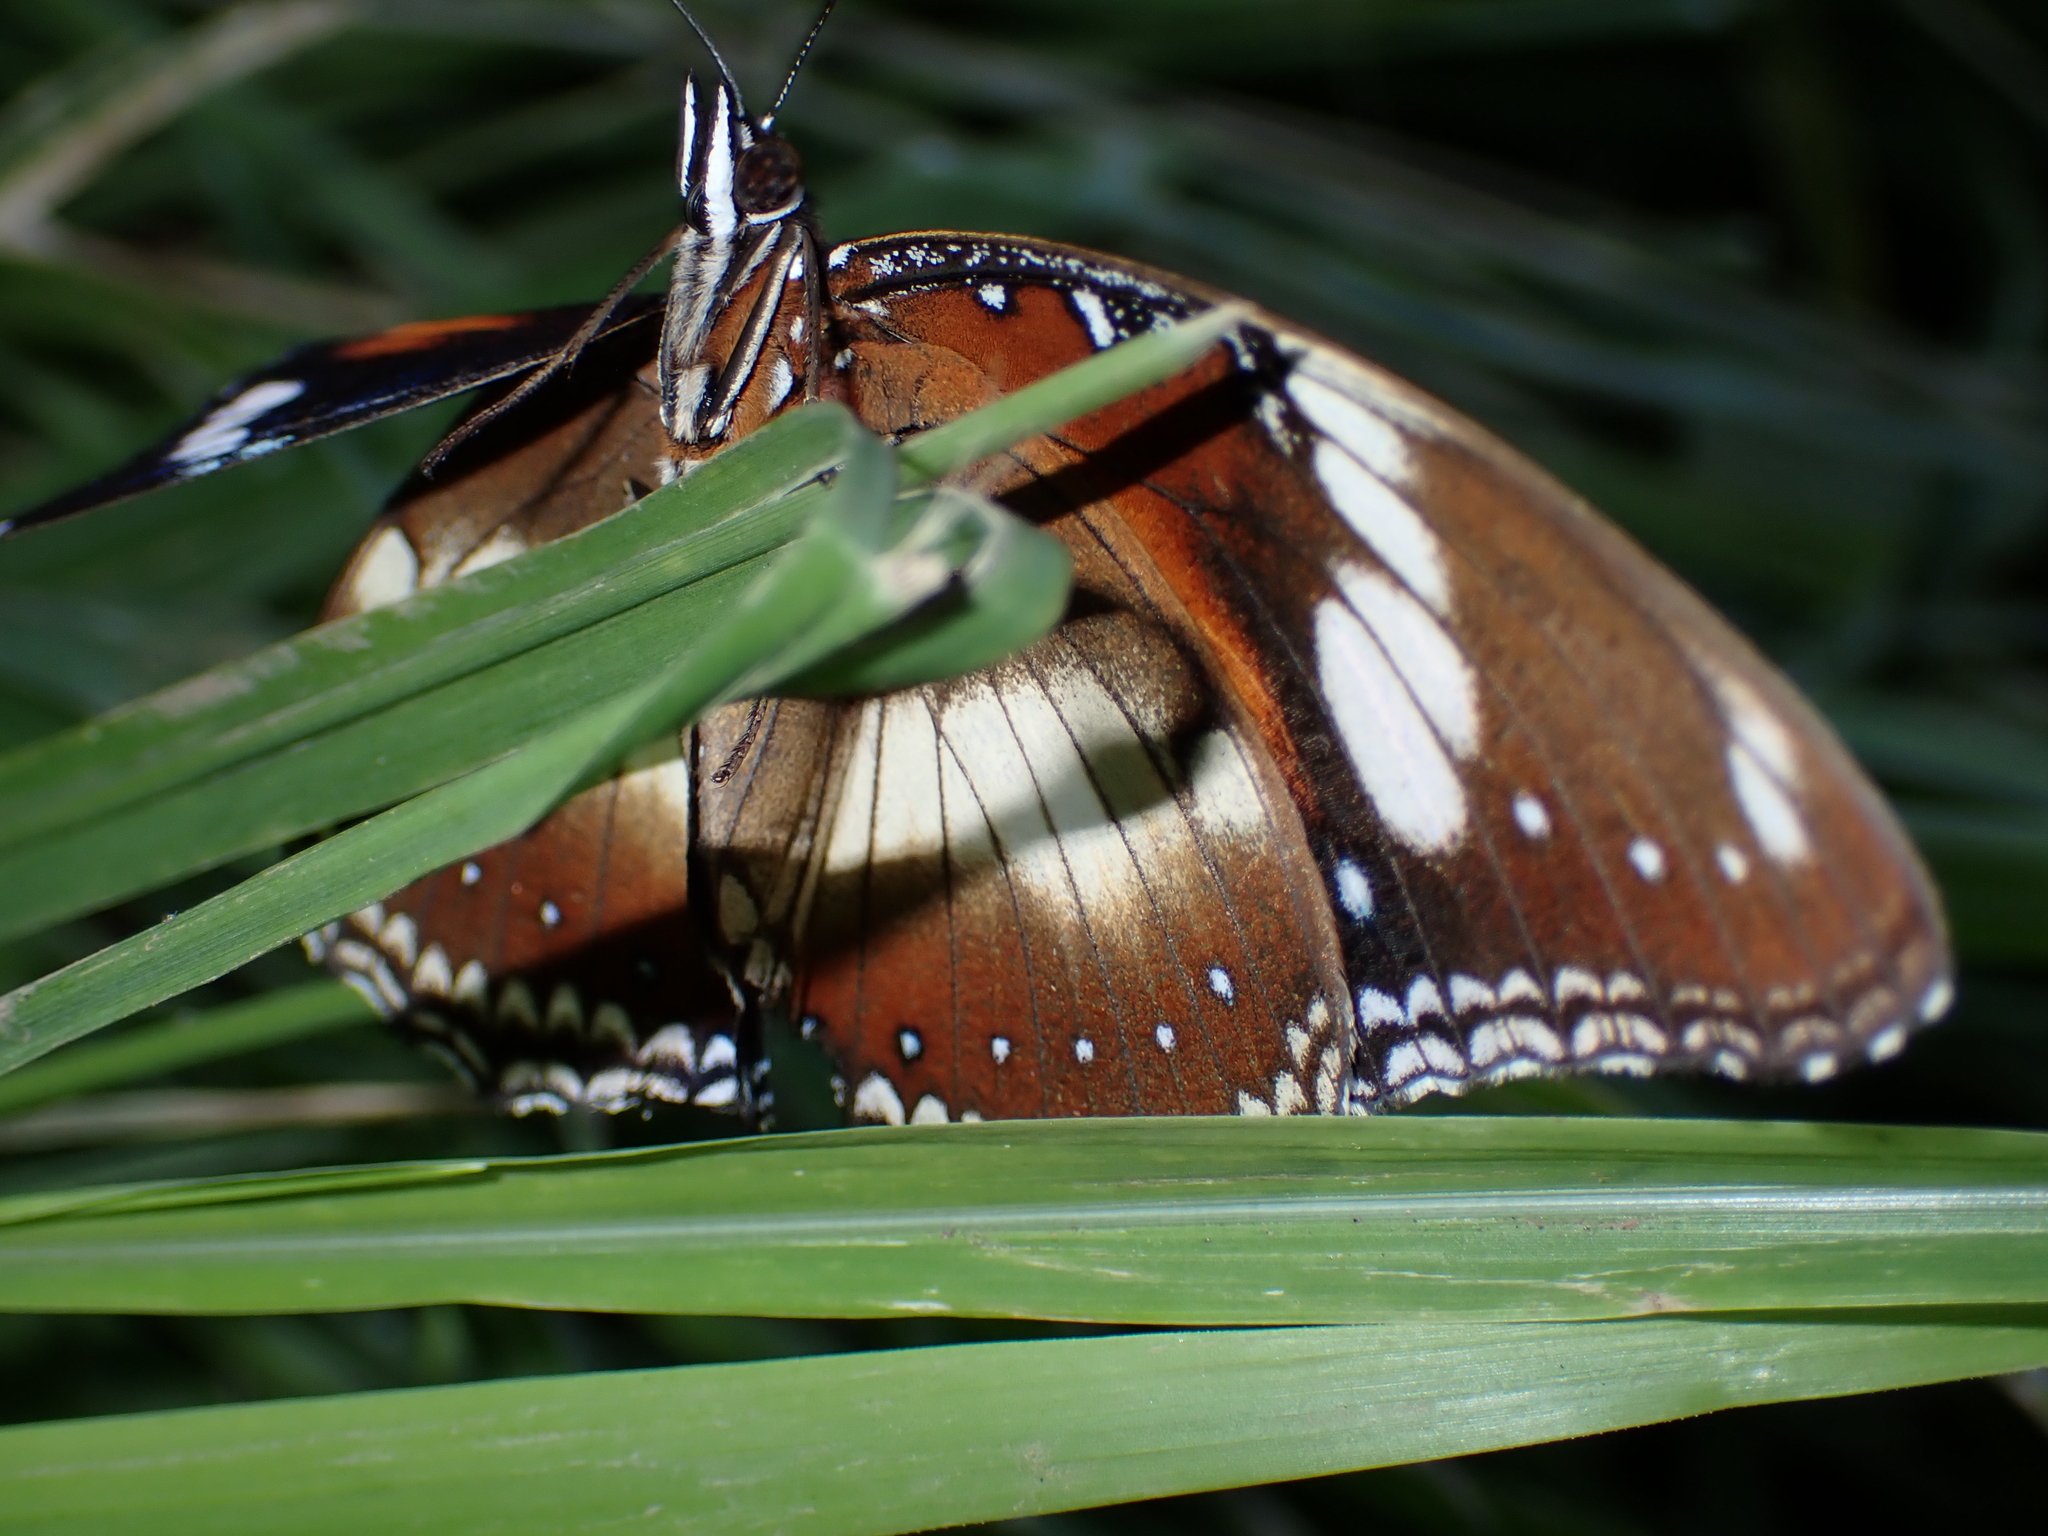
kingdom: Animalia
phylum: Arthropoda
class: Insecta
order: Lepidoptera
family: Nymphalidae
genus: Hypolimnas
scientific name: Hypolimnas bolina
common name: Great eggfly
